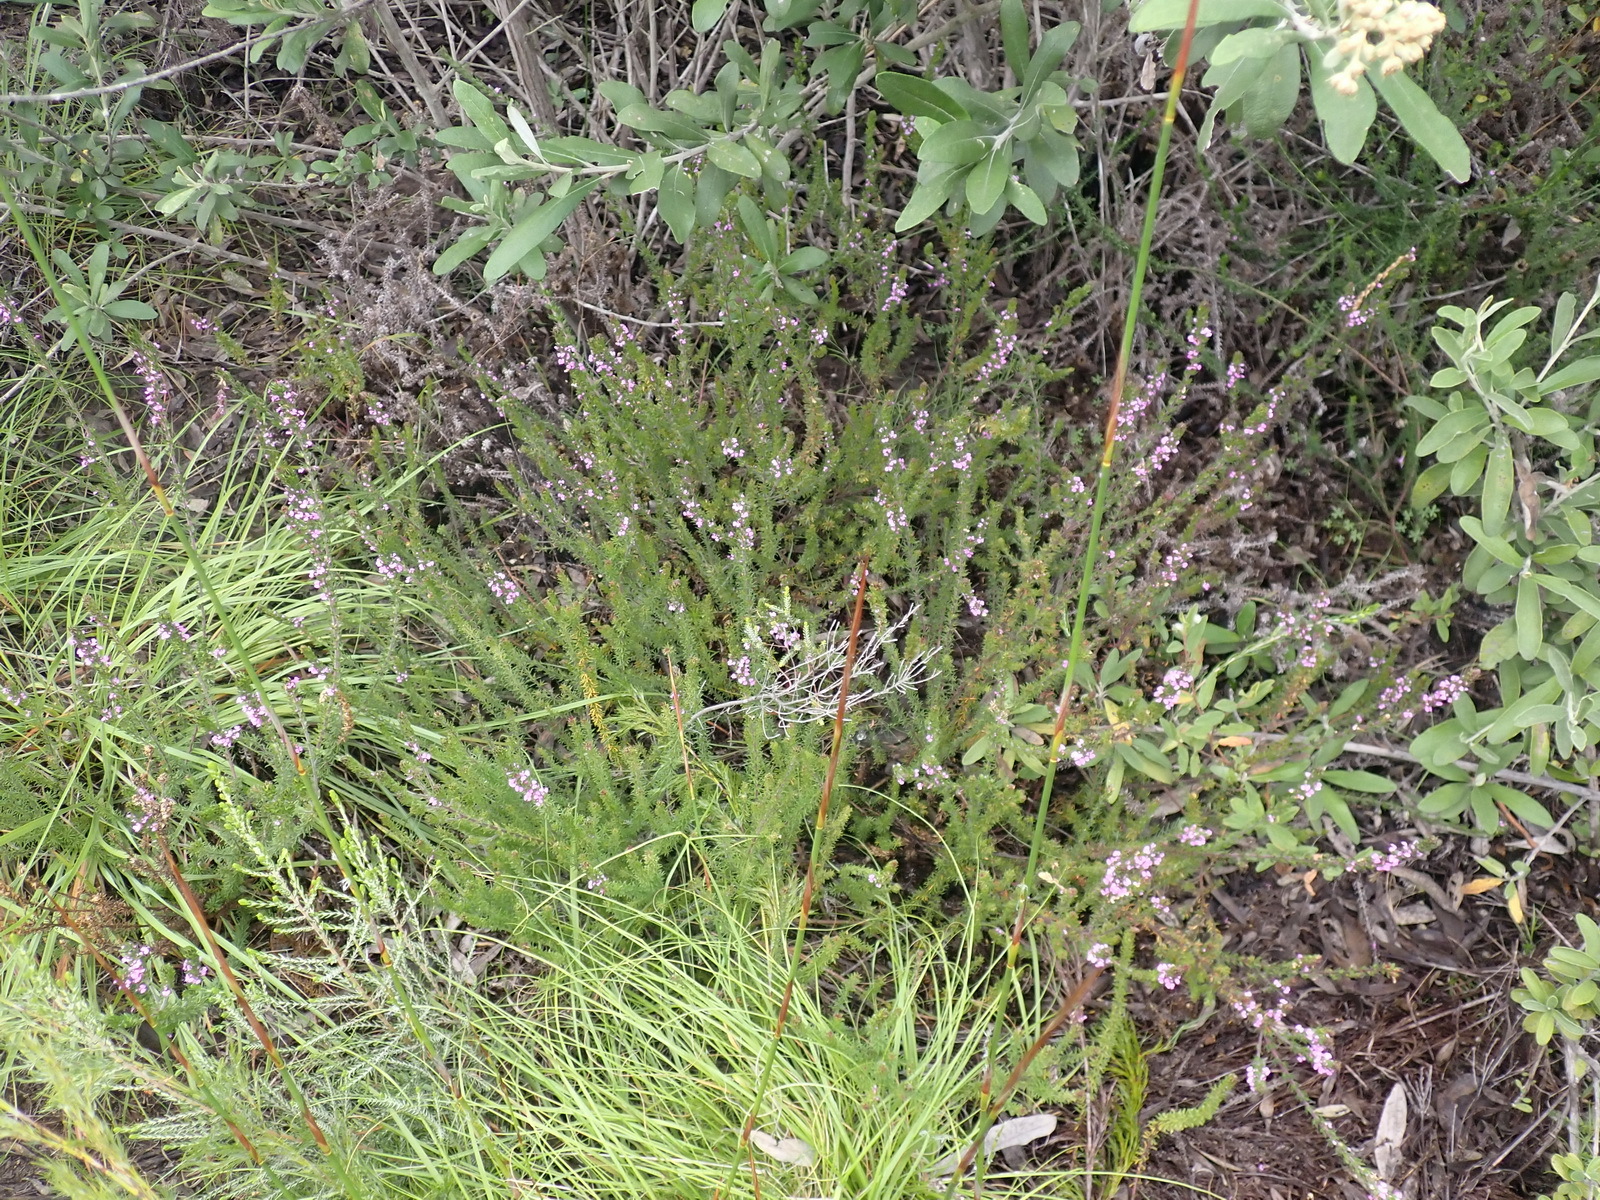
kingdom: Plantae
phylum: Tracheophyta
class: Magnoliopsida
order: Fabales
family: Polygalaceae
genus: Muraltia
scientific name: Muraltia alopecuroides
